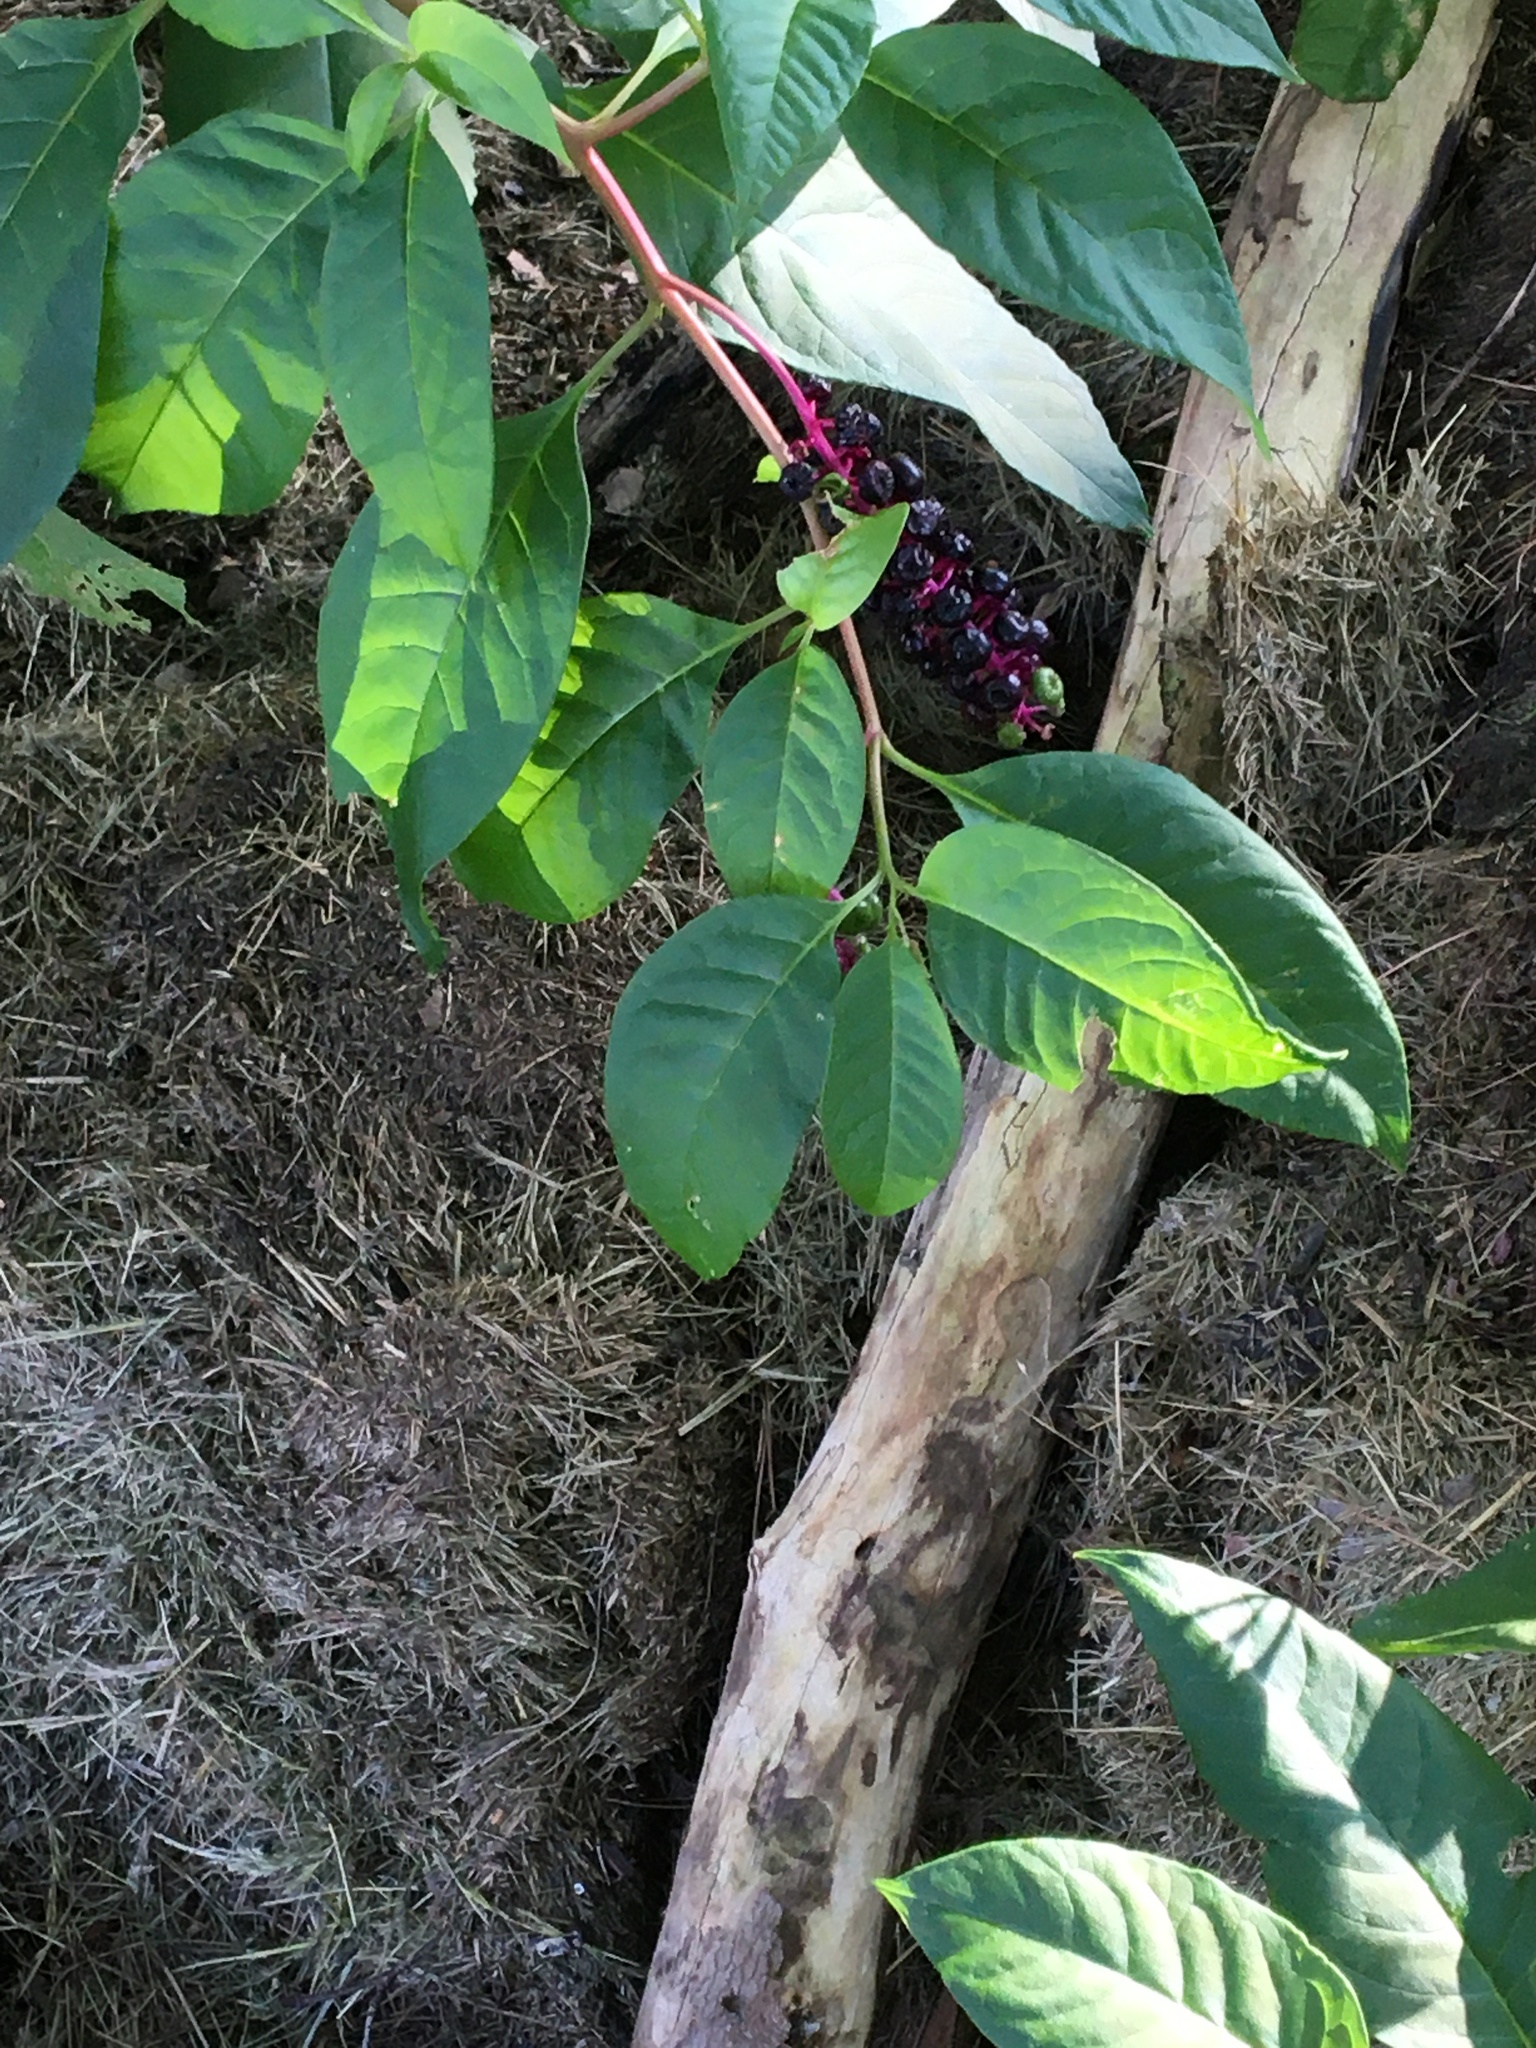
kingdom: Plantae
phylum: Tracheophyta
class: Magnoliopsida
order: Caryophyllales
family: Phytolaccaceae
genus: Phytolacca
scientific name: Phytolacca americana
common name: American pokeweed
